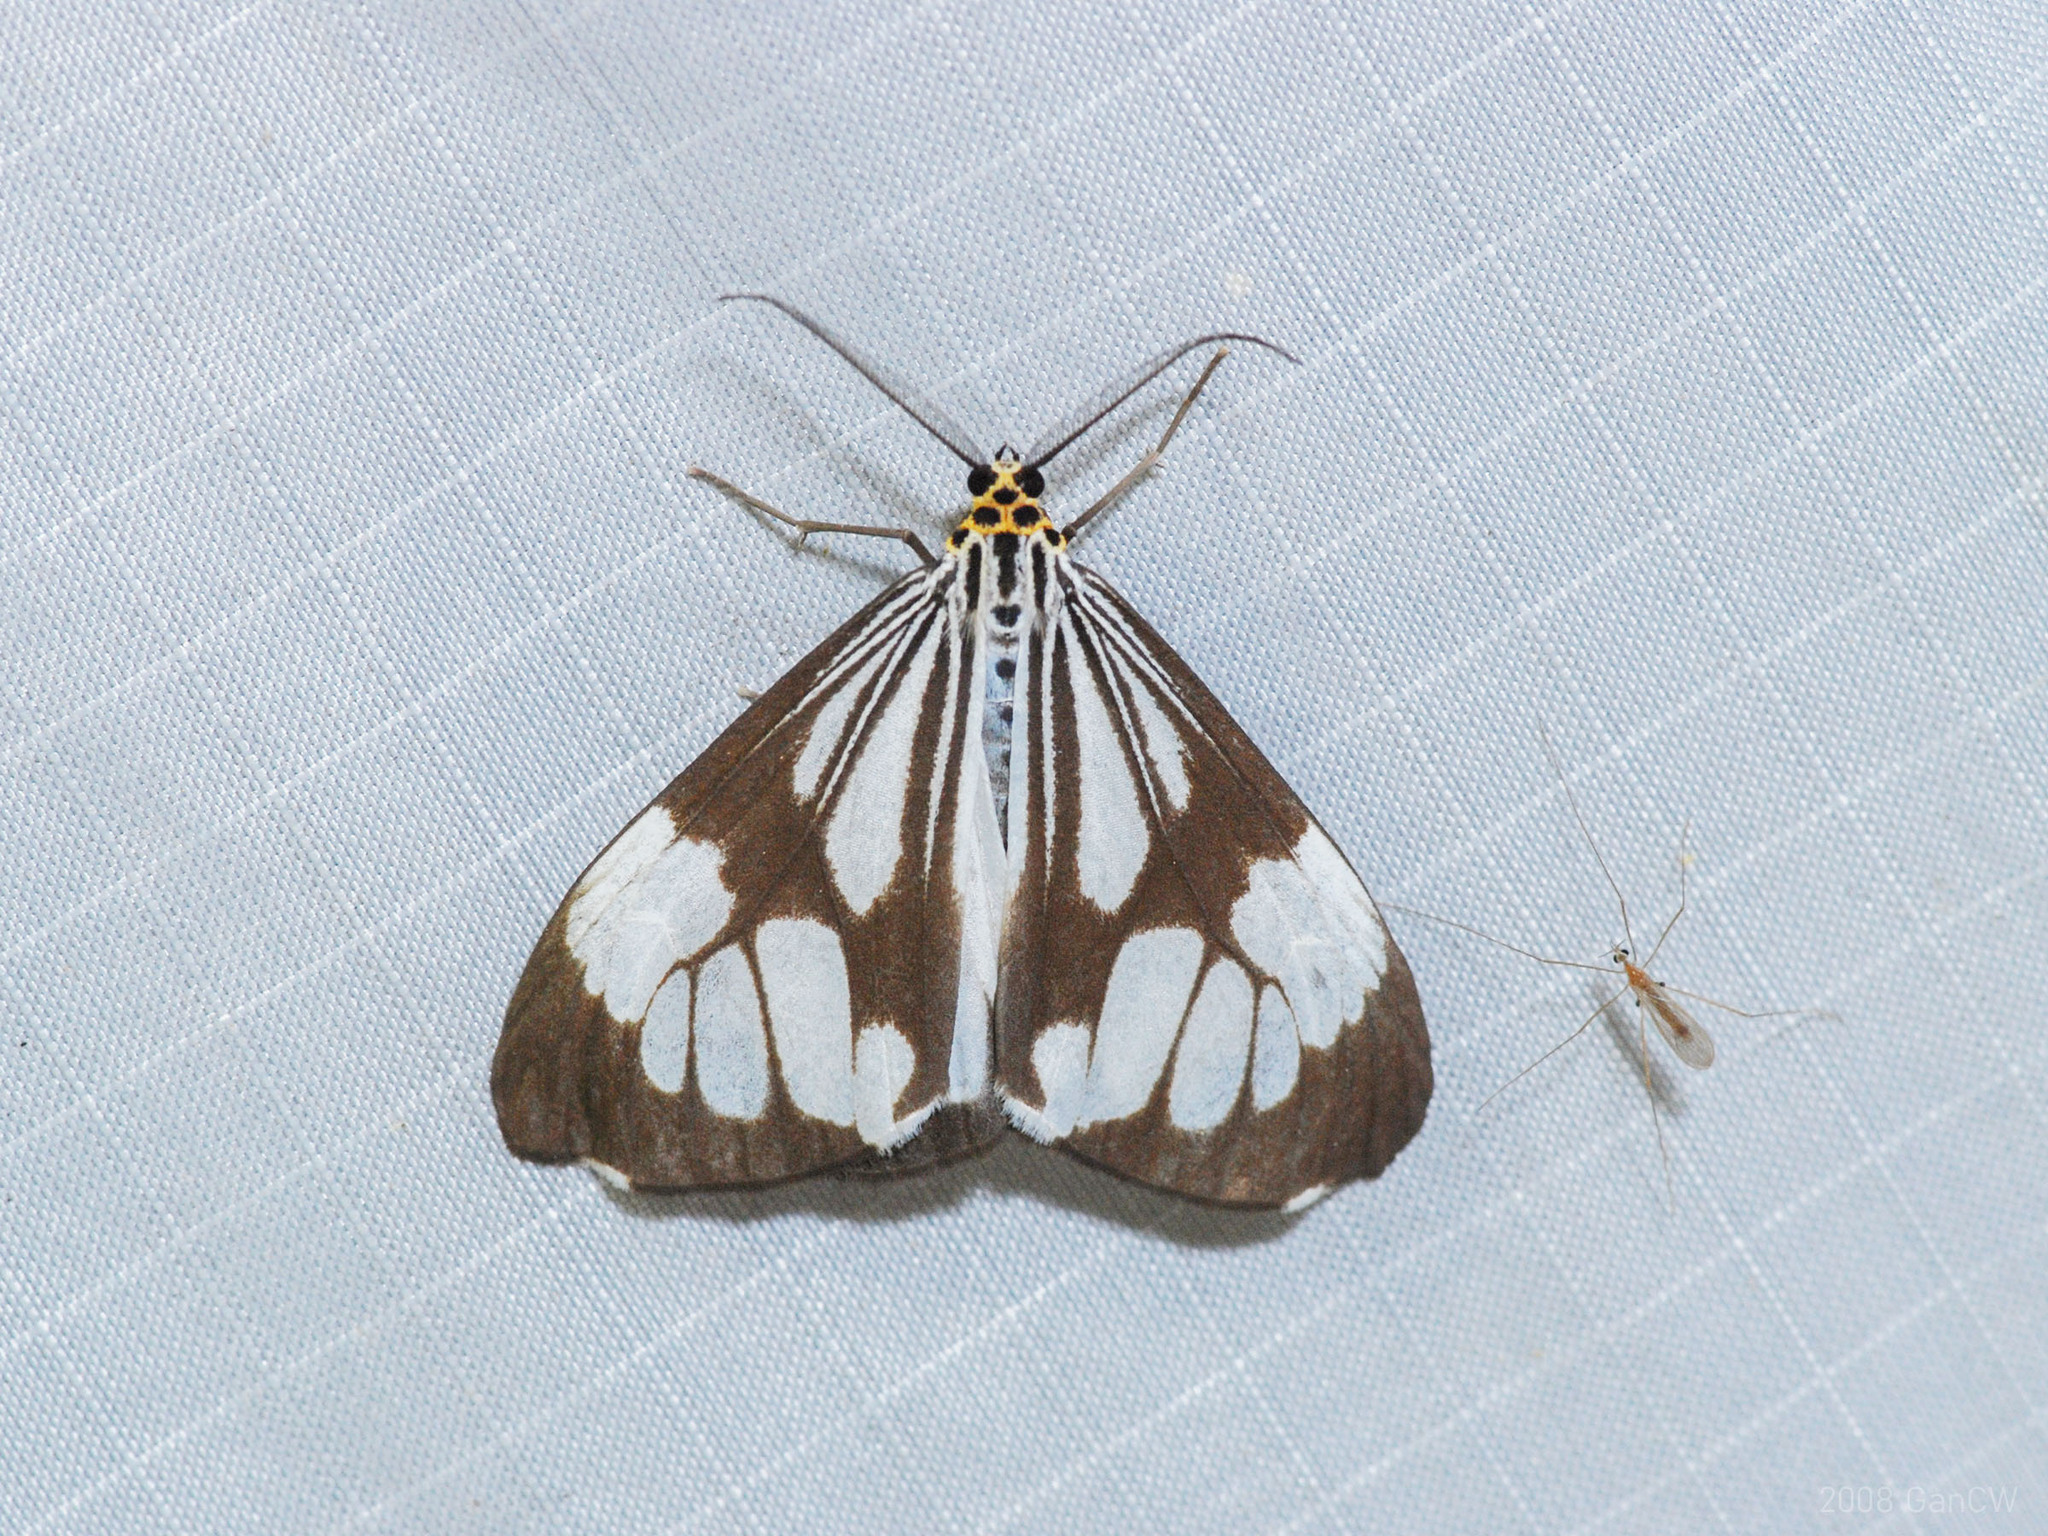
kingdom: Animalia
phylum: Arthropoda
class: Insecta
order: Lepidoptera
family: Erebidae
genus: Nyctemera
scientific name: Nyctemera coleta
